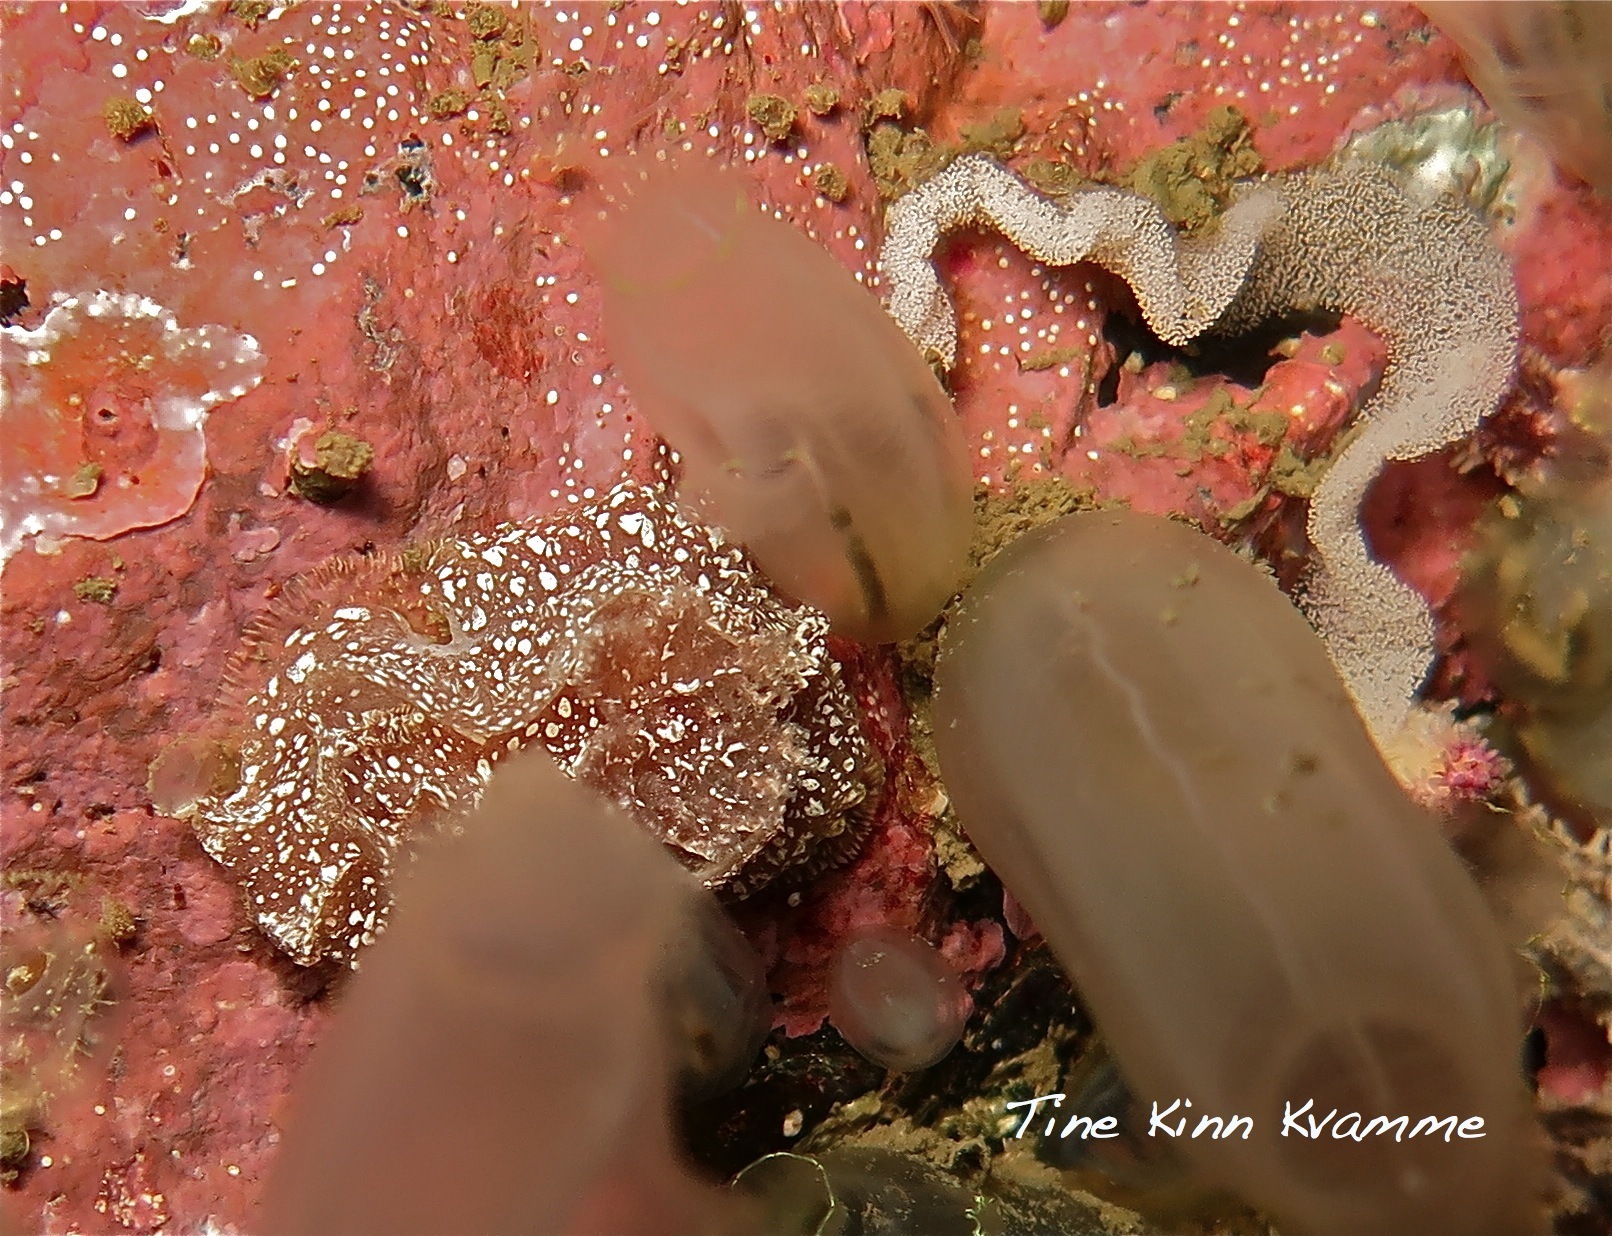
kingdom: Animalia
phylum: Mollusca
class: Gastropoda
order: Nudibranchia
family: Goniodorididae
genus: Pelagella
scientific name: Pelagella castanea
